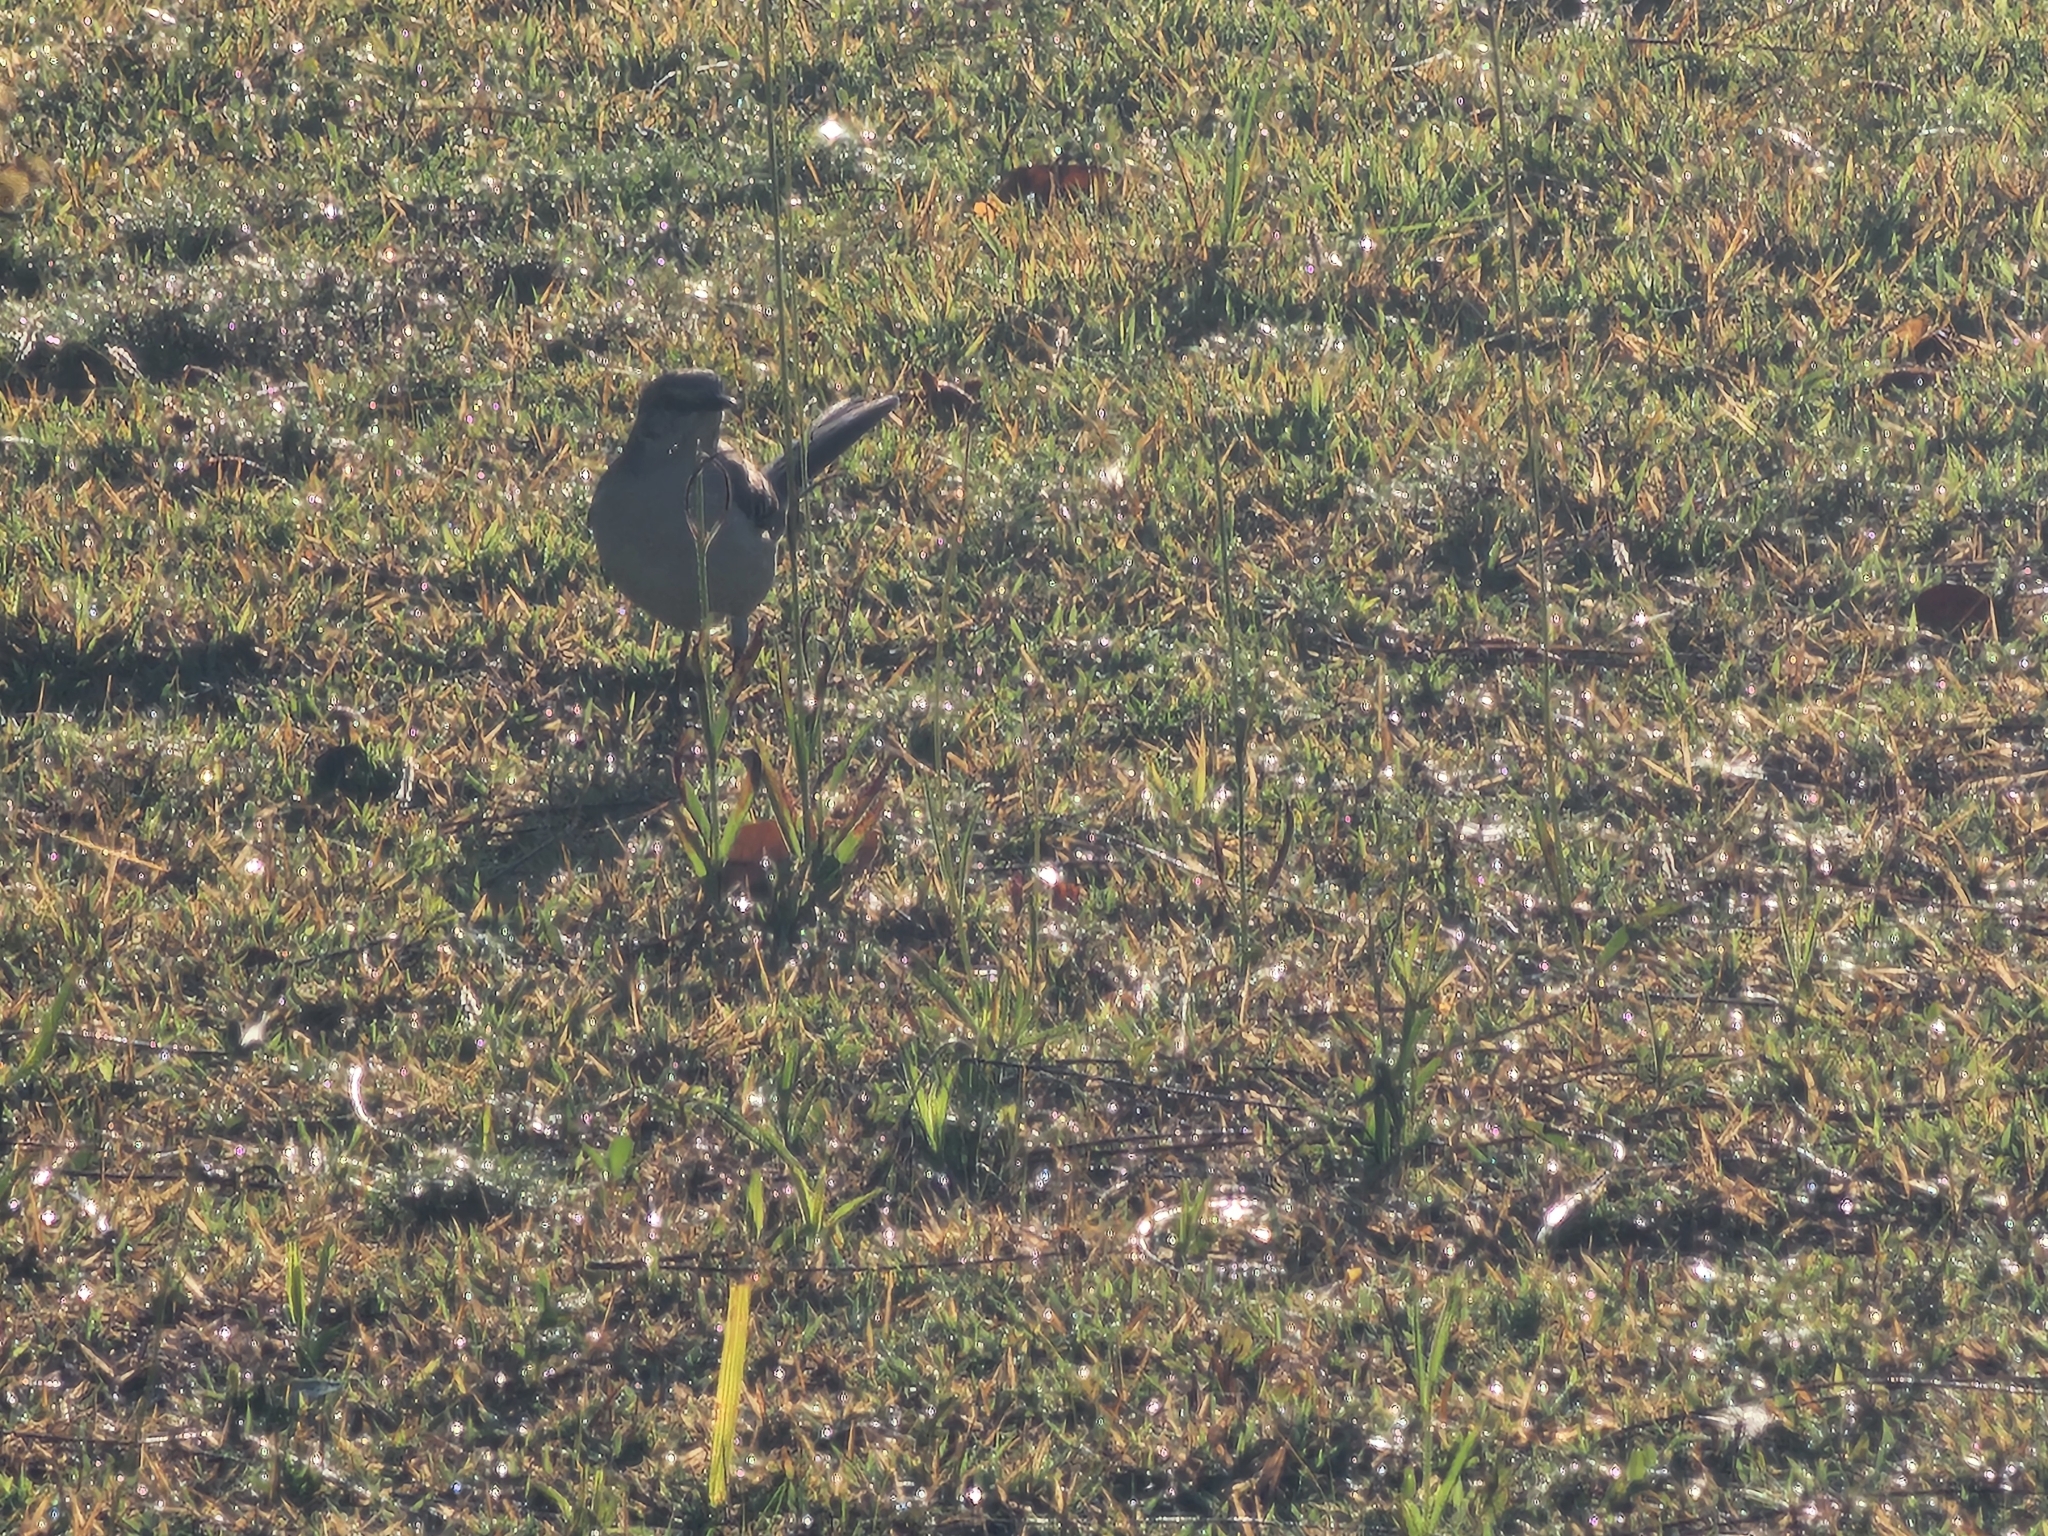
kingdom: Animalia
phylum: Chordata
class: Aves
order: Passeriformes
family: Mimidae
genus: Mimus
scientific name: Mimus polyglottos
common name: Northern mockingbird
